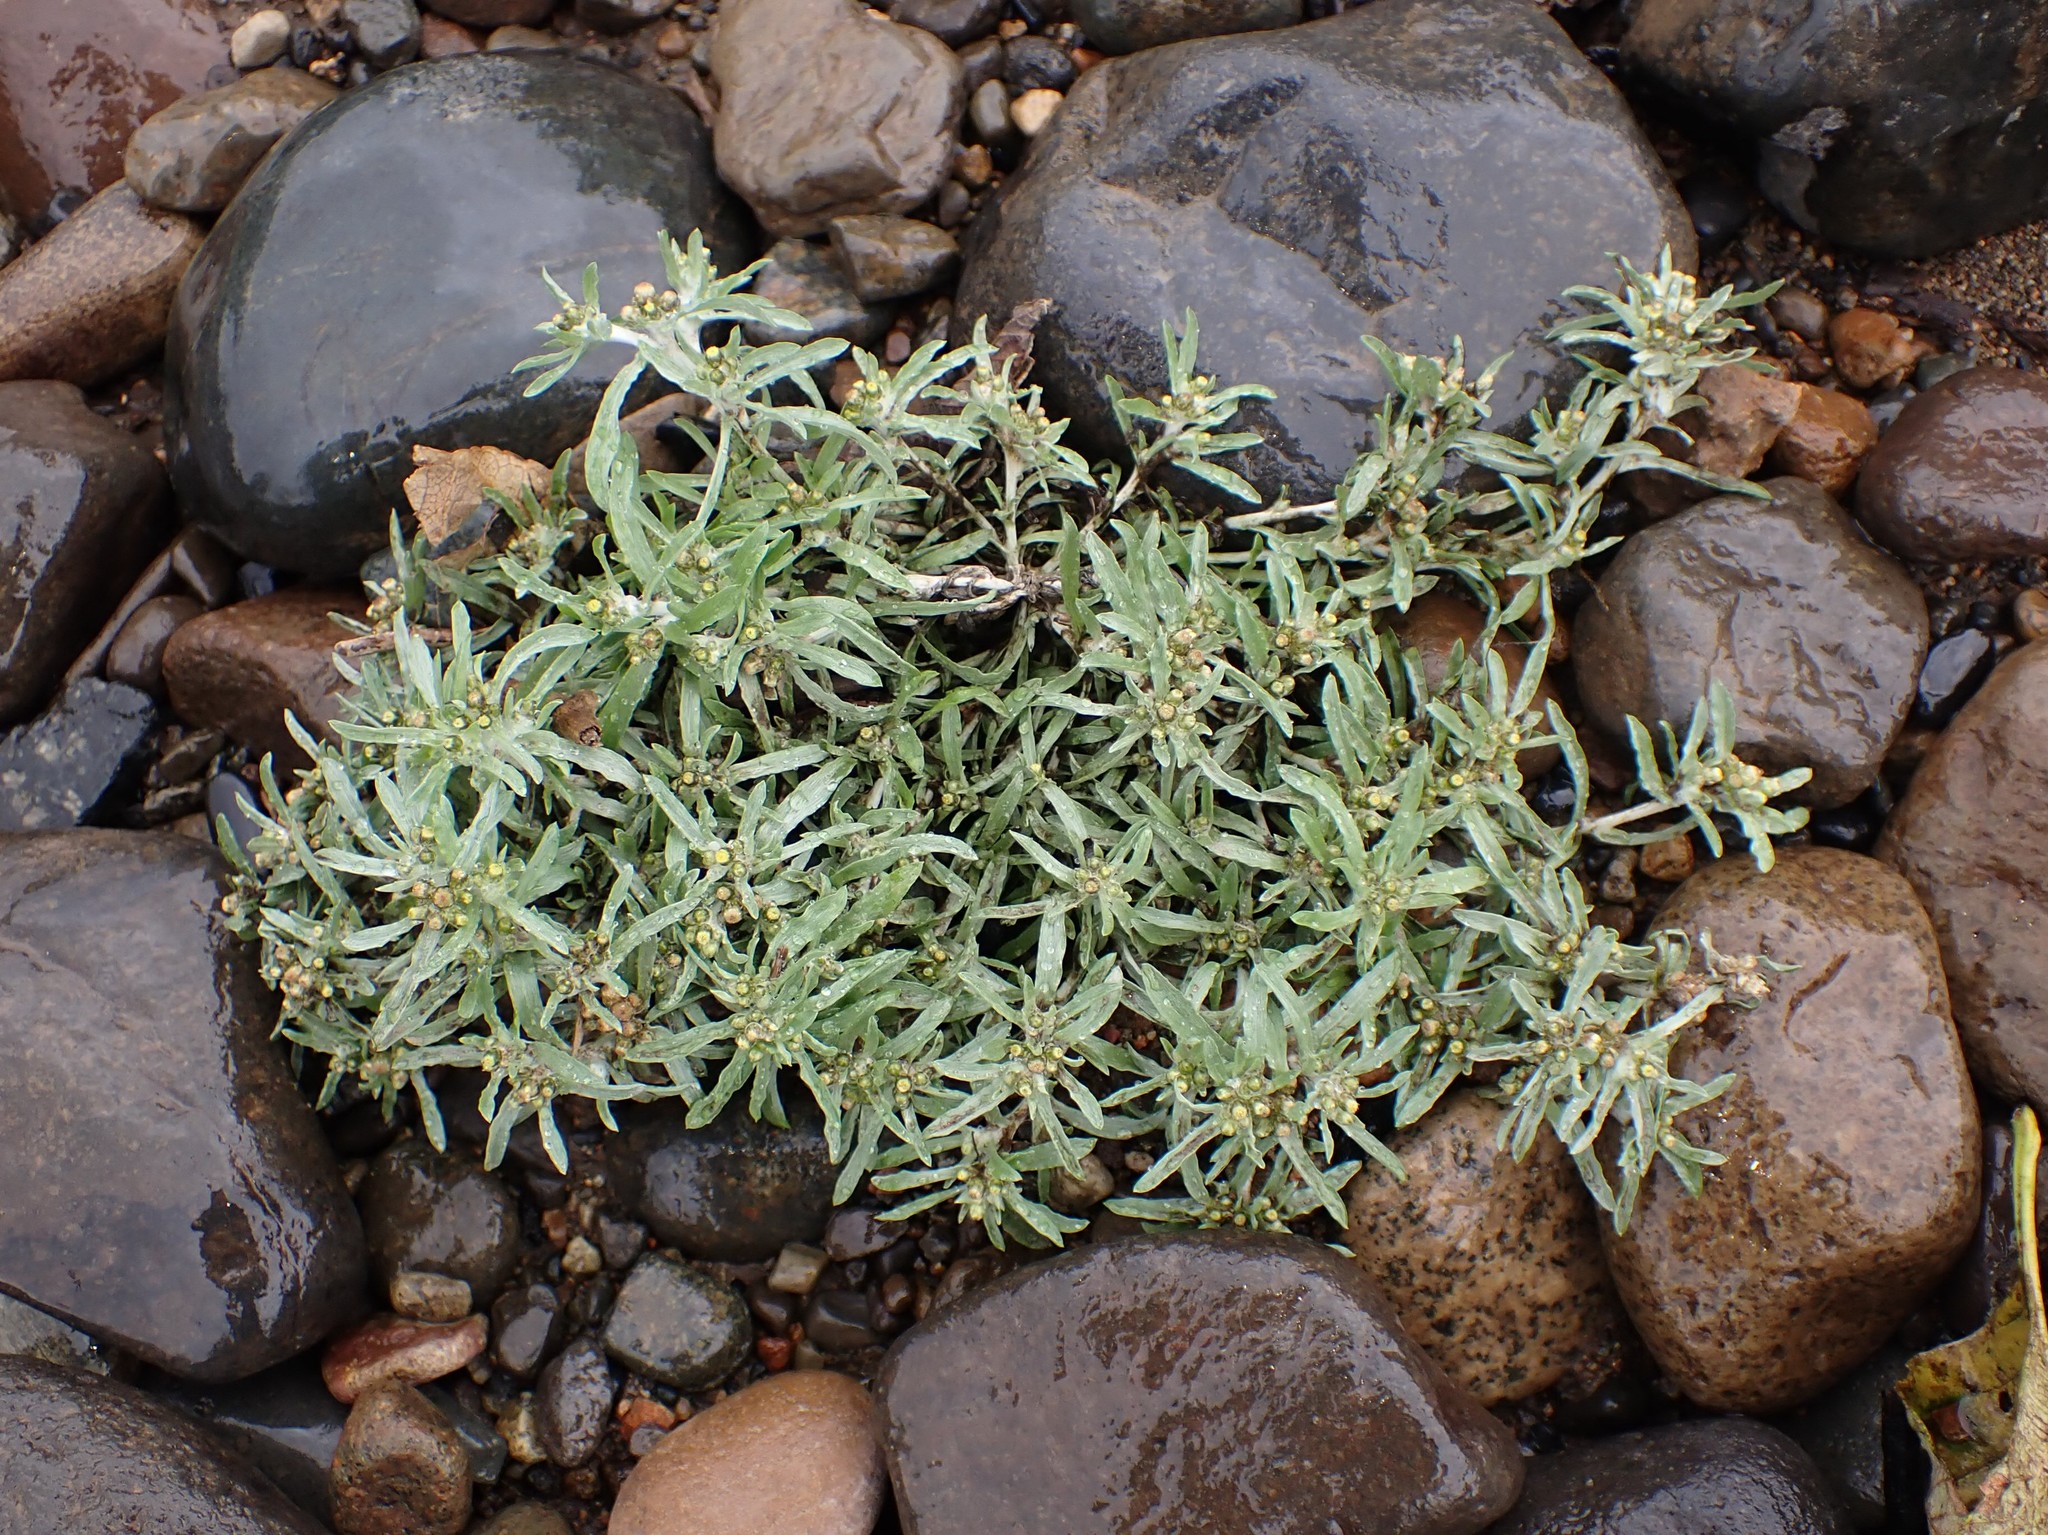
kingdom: Plantae
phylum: Tracheophyta
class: Magnoliopsida
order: Asterales
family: Asteraceae
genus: Gnaphalium
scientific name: Gnaphalium uliginosum
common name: Marsh cudweed
